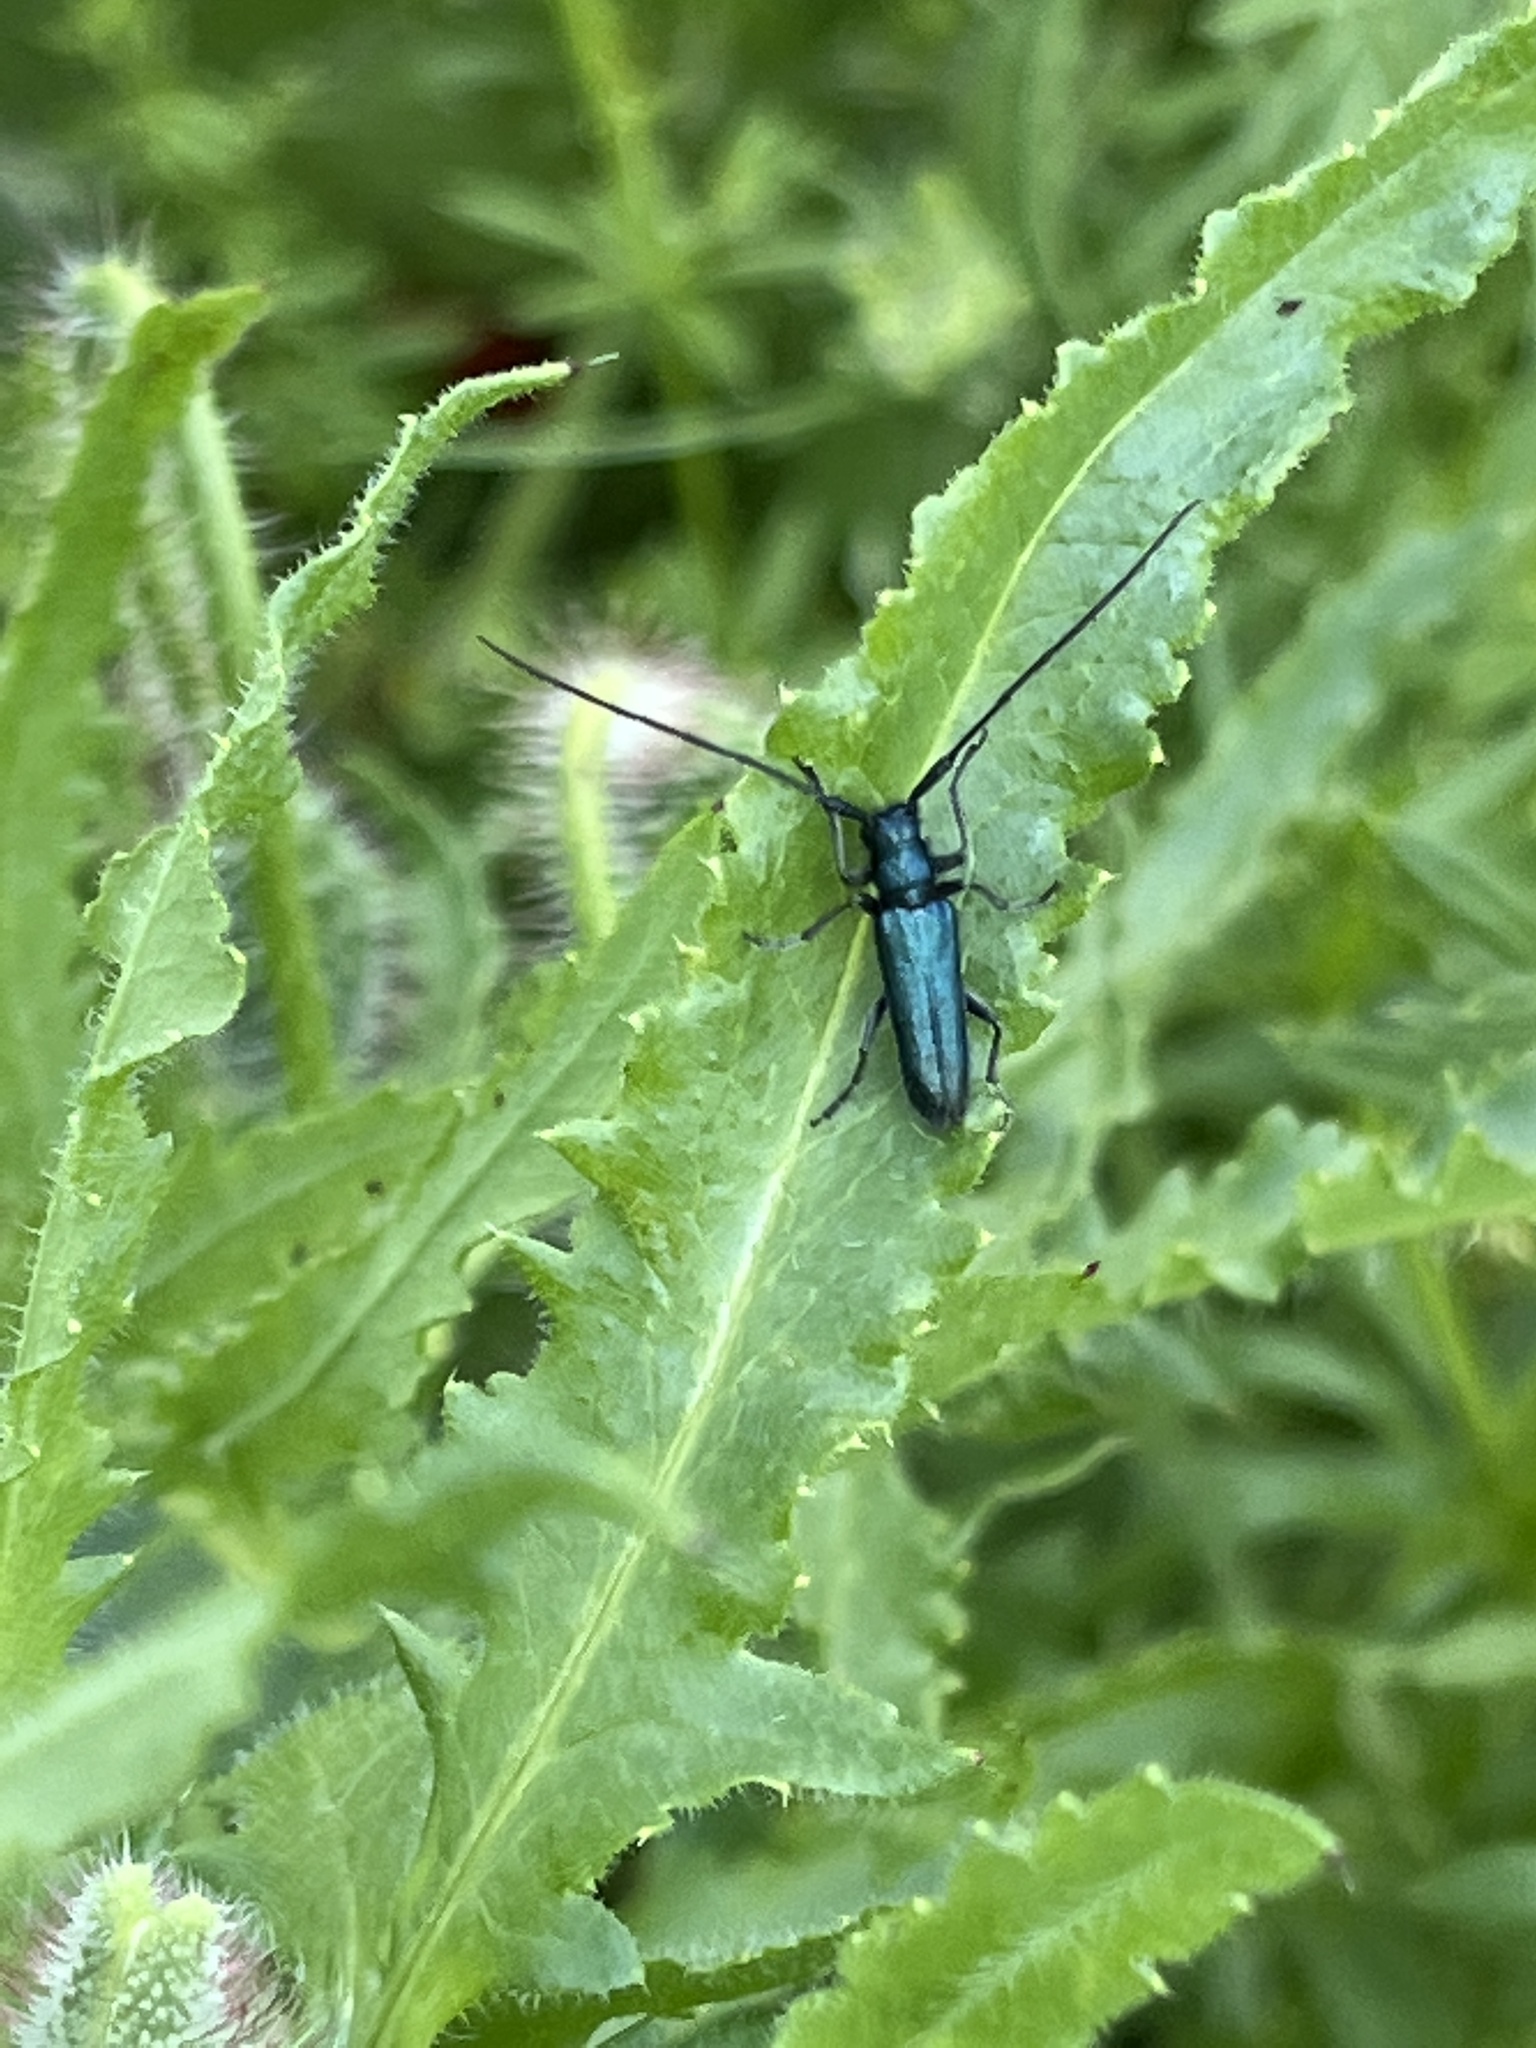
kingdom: Animalia
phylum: Arthropoda
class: Insecta
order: Coleoptera
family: Cerambycidae
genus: Agapanthia
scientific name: Agapanthia violacea
